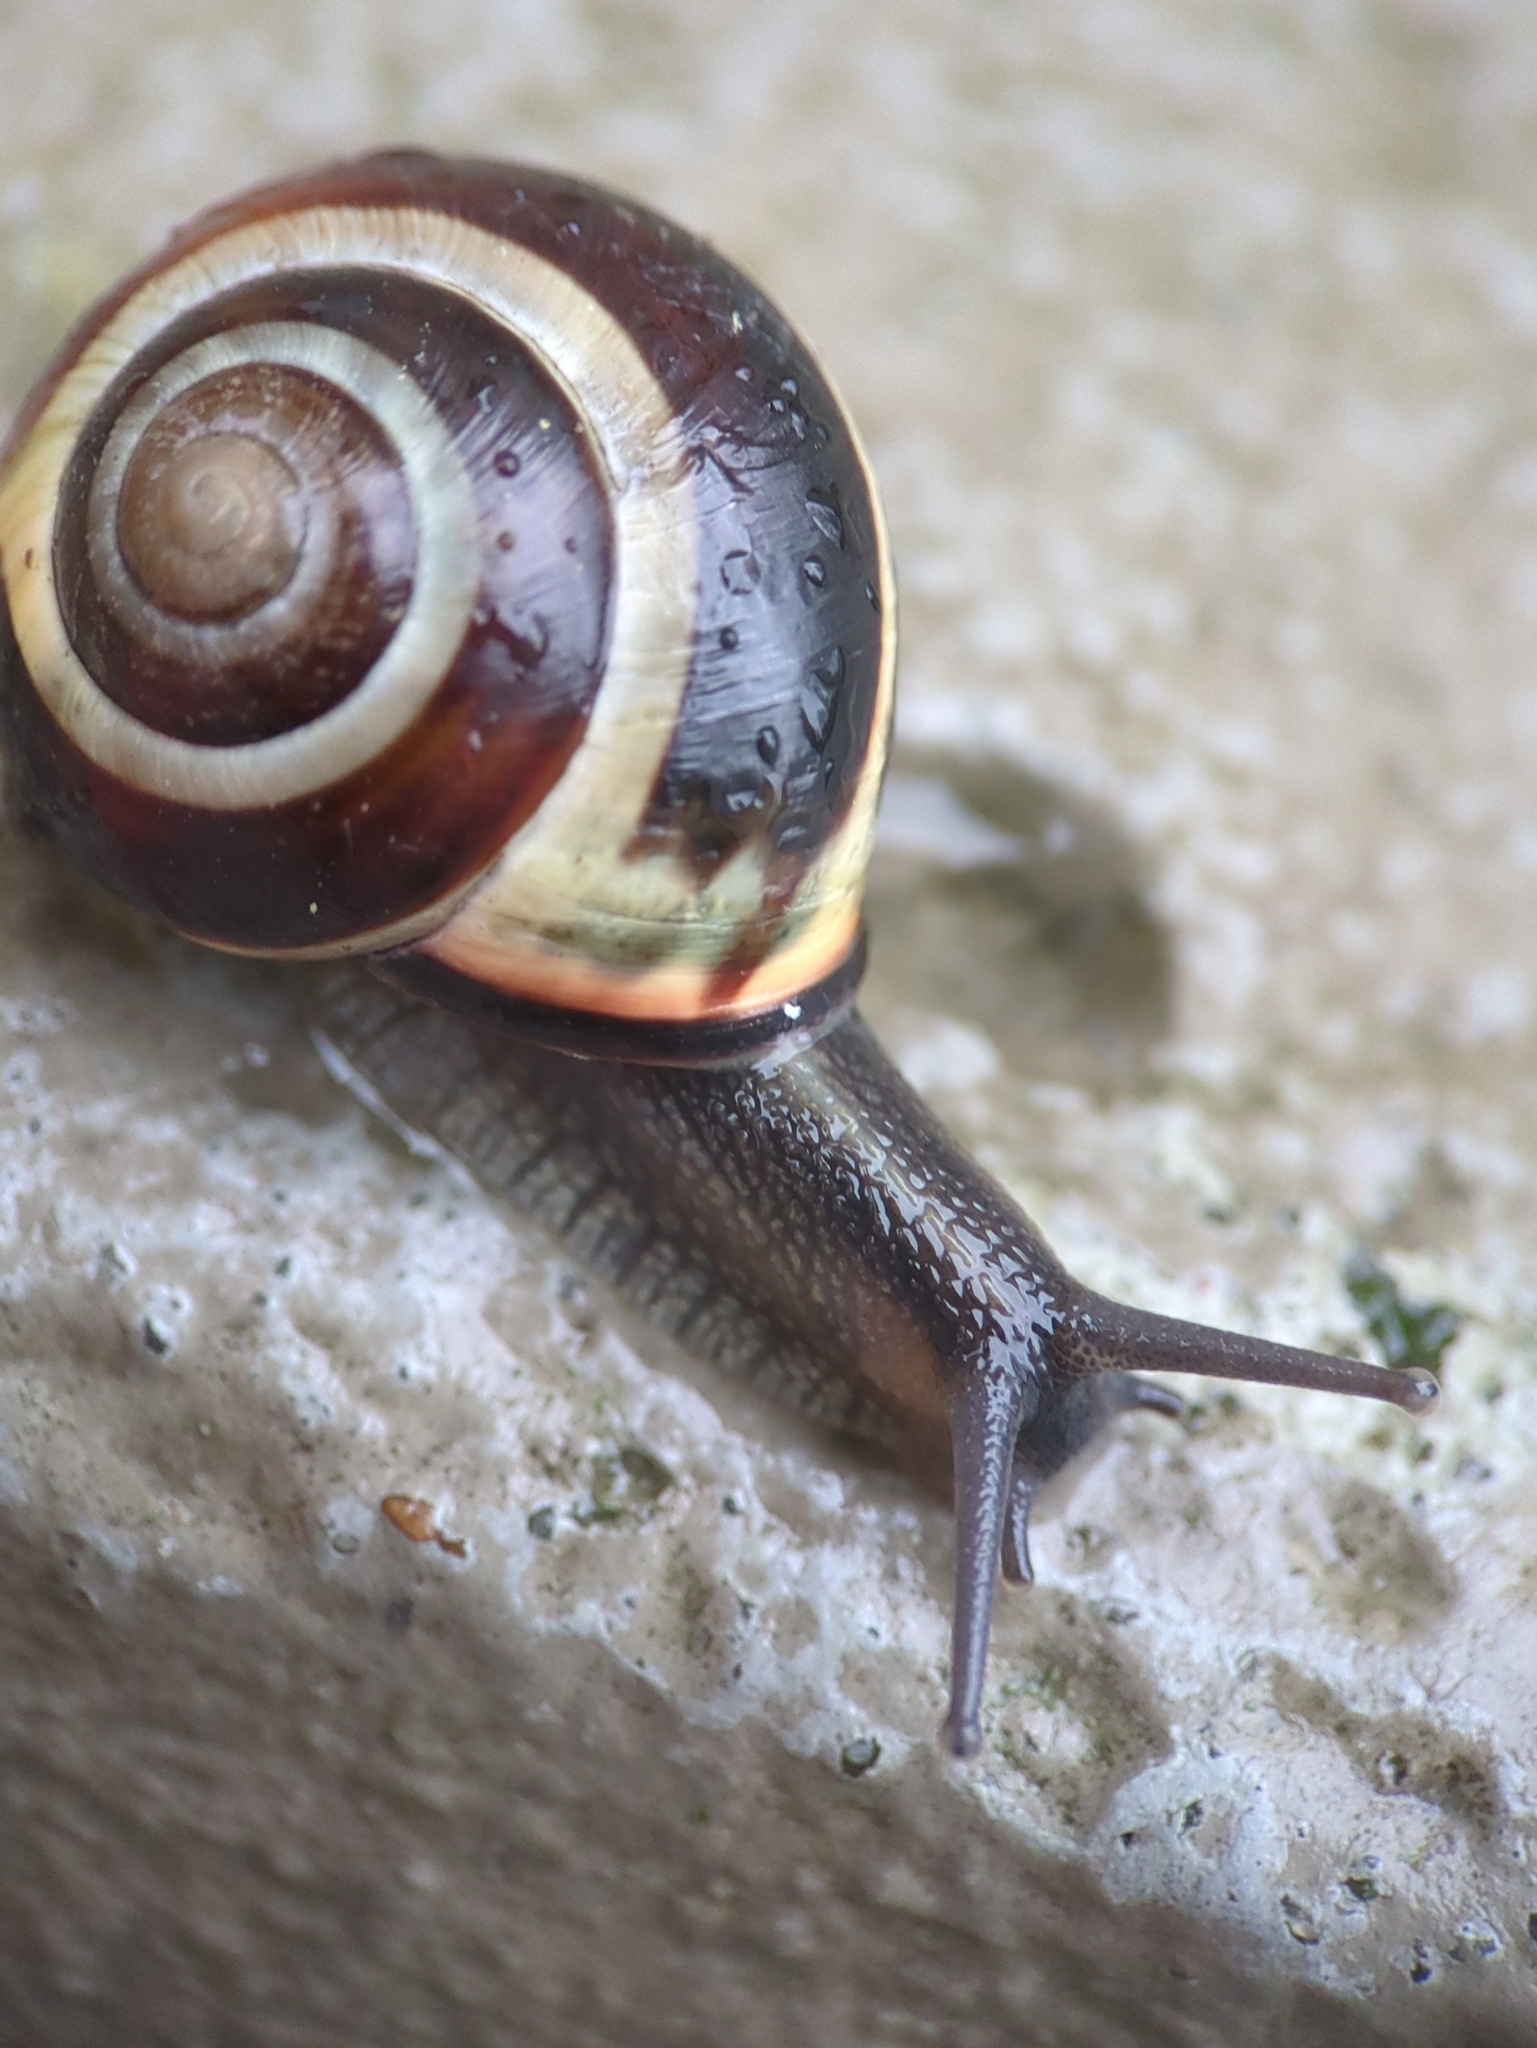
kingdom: Animalia
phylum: Mollusca
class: Gastropoda
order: Stylommatophora
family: Helicidae
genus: Cepaea
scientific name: Cepaea nemoralis
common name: Grovesnail
